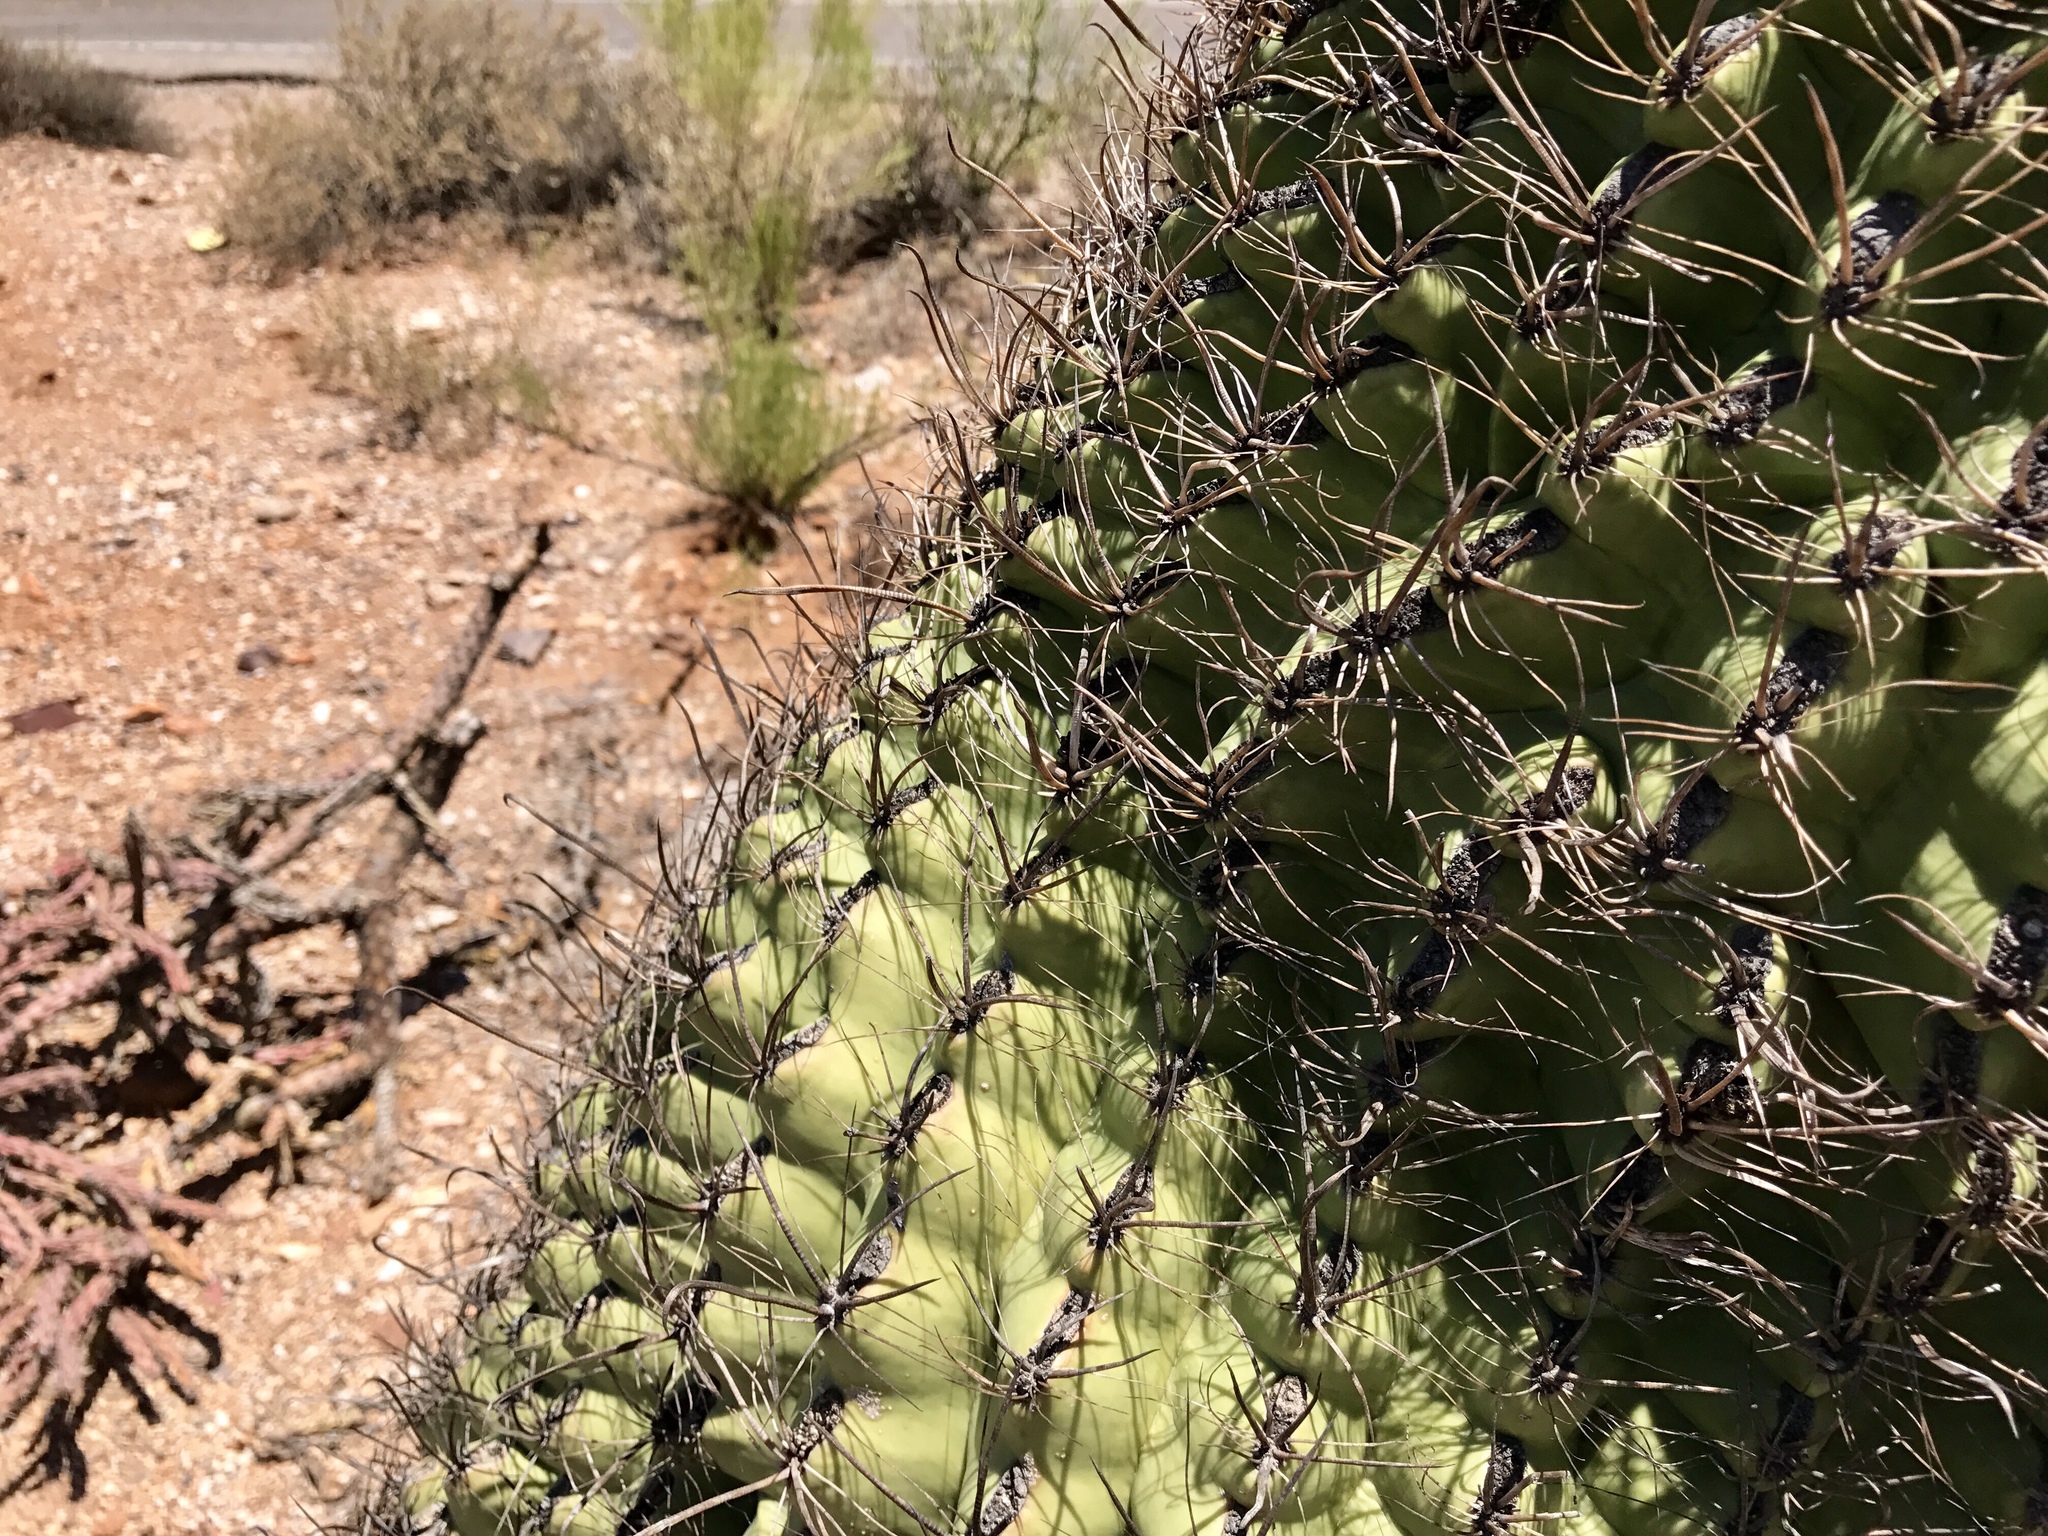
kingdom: Plantae
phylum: Tracheophyta
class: Magnoliopsida
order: Caryophyllales
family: Cactaceae
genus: Ferocactus
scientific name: Ferocactus wislizeni
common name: Candy barrel cactus
